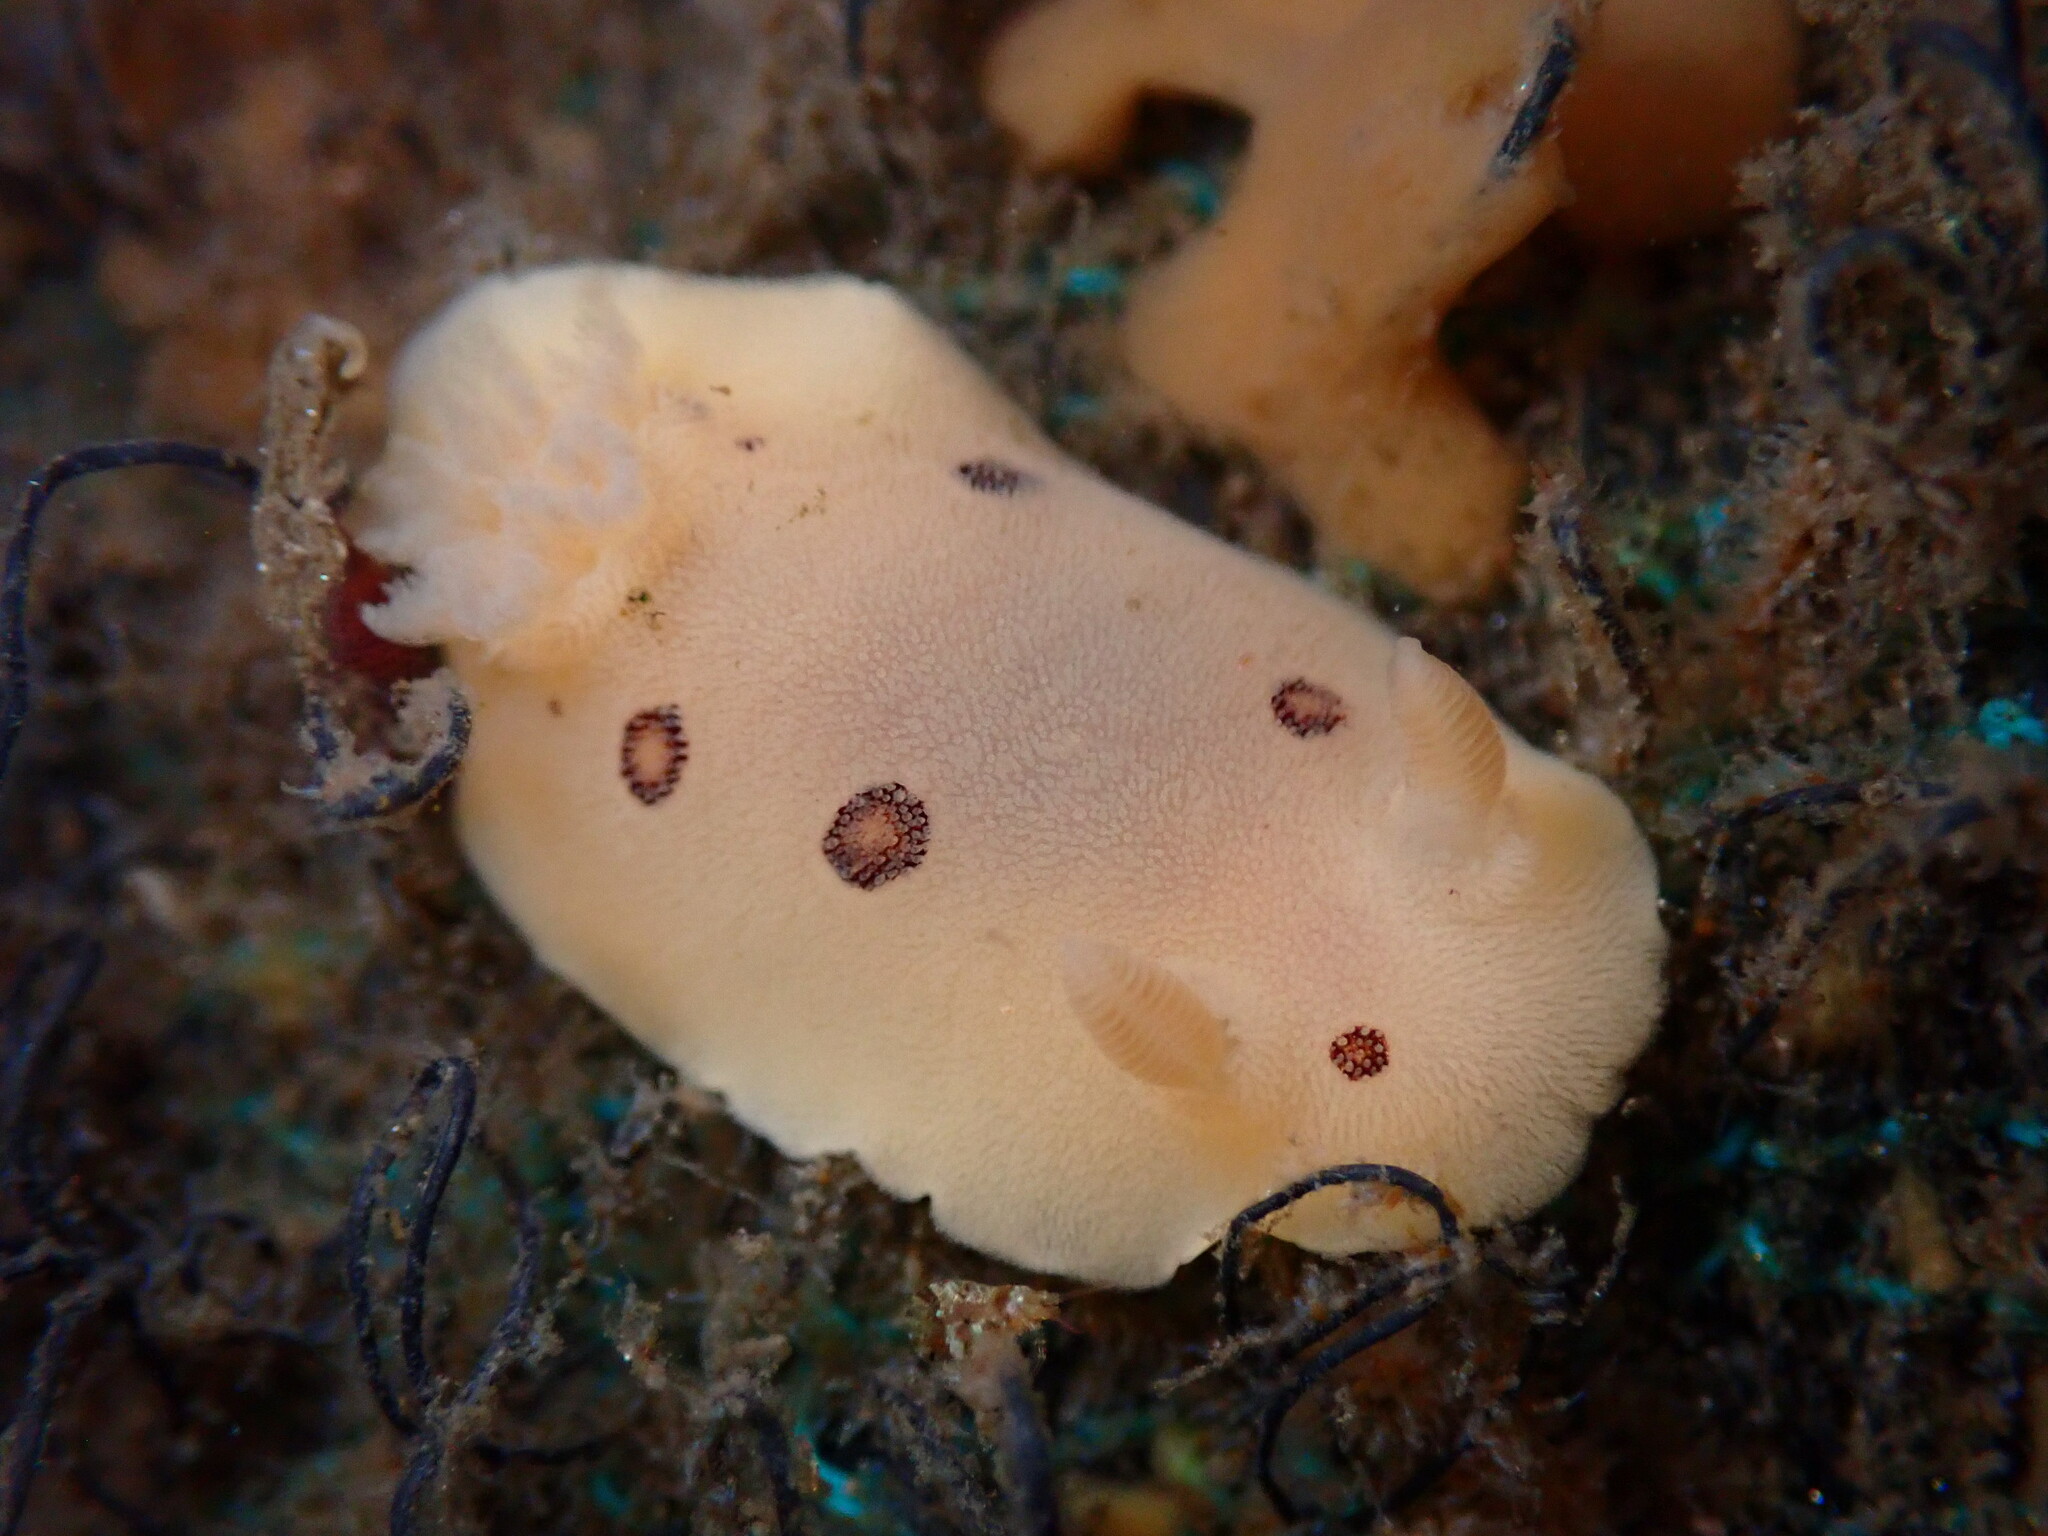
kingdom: Animalia
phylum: Mollusca
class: Gastropoda
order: Nudibranchia
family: Discodorididae
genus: Diaulula
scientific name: Diaulula sandiegensis
